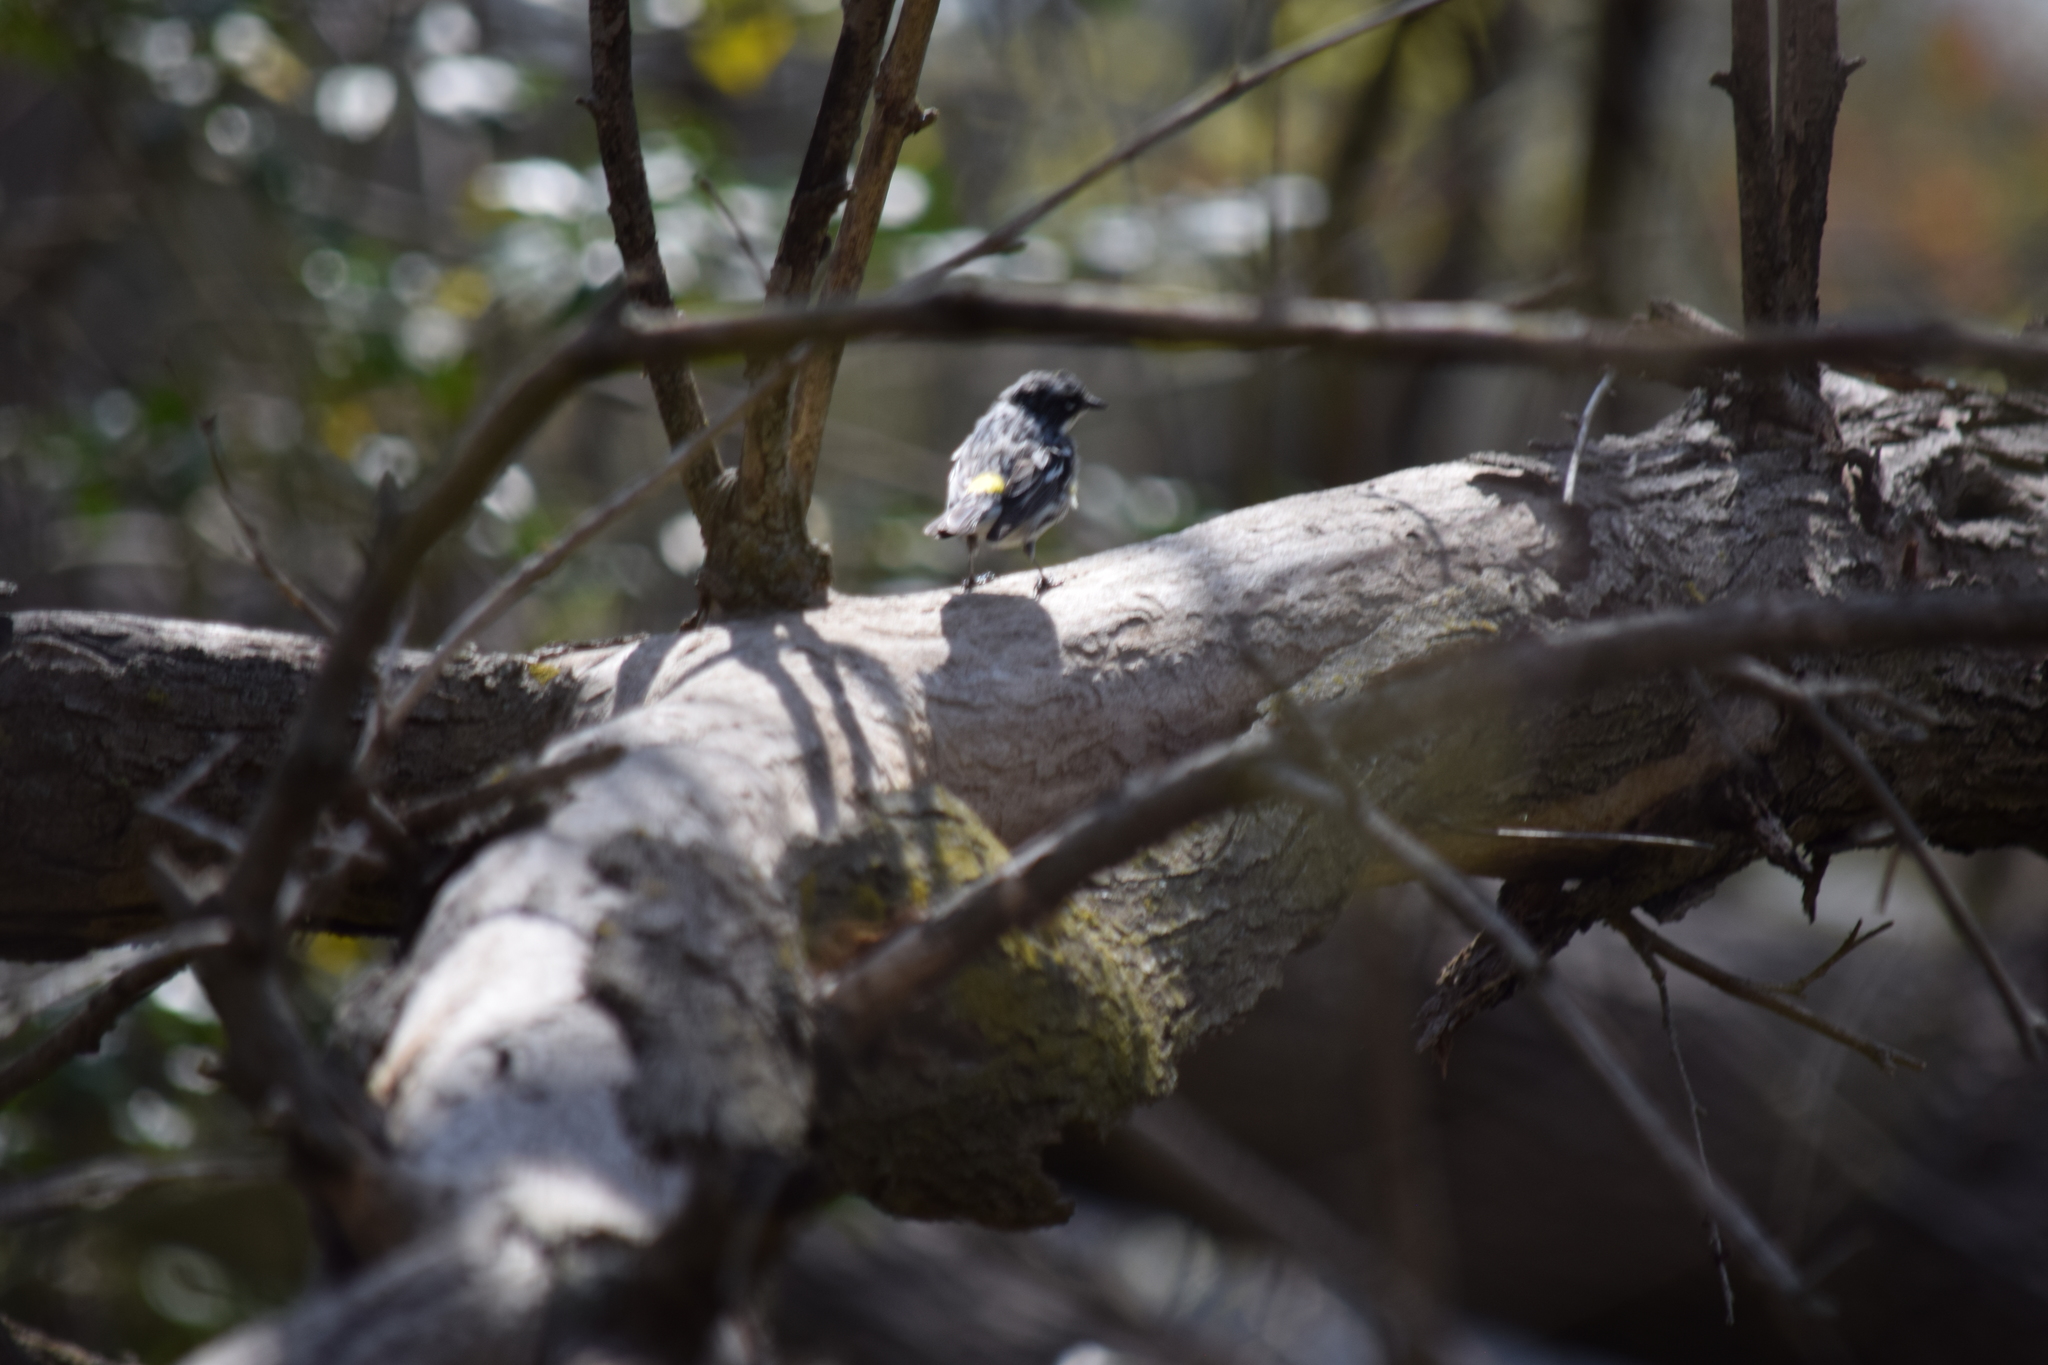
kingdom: Animalia
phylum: Chordata
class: Aves
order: Passeriformes
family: Parulidae
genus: Setophaga
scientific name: Setophaga coronata
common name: Myrtle warbler
